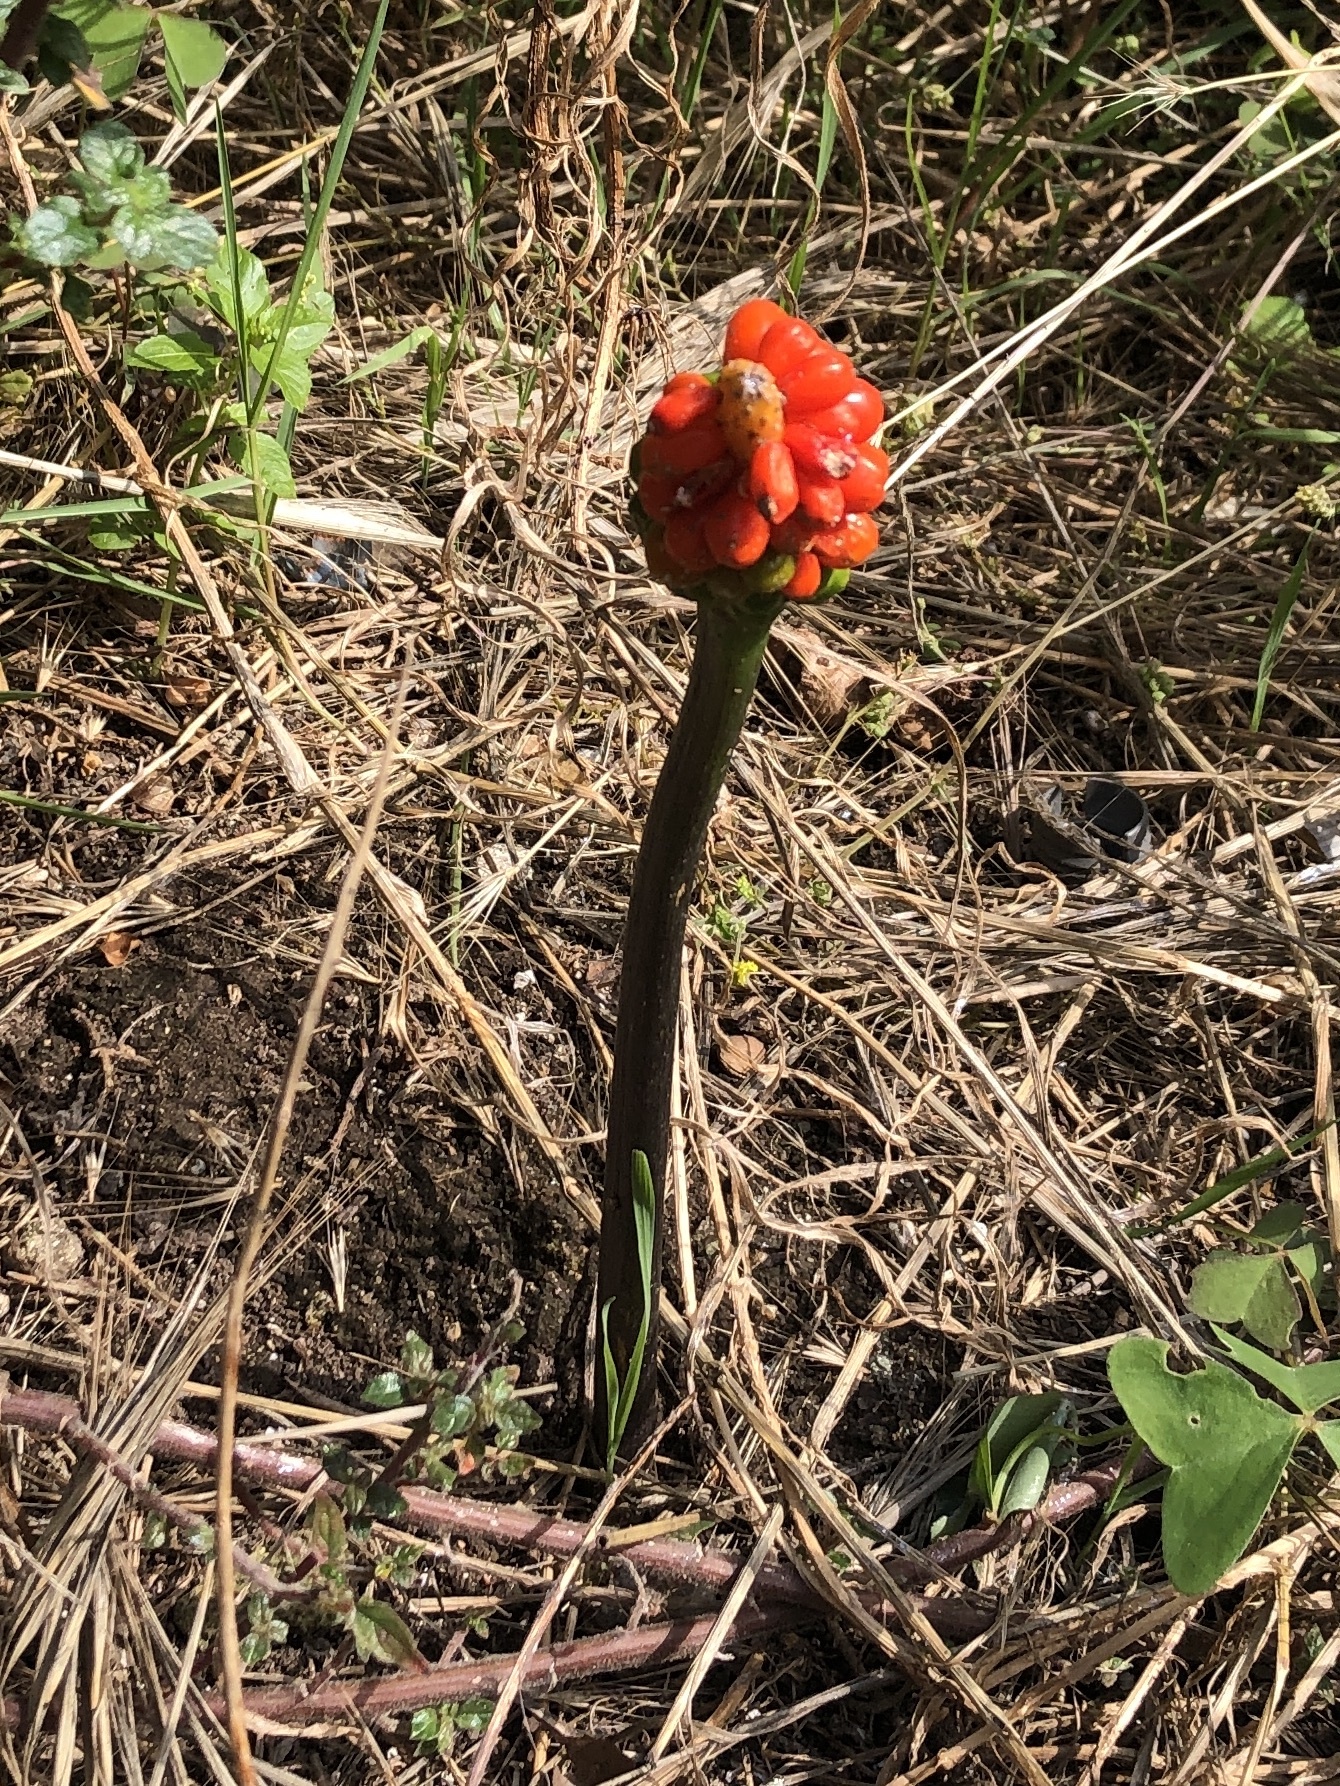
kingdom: Plantae
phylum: Tracheophyta
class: Liliopsida
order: Alismatales
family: Araceae
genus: Arum
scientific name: Arum italicum
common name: Italian lords-and-ladies
